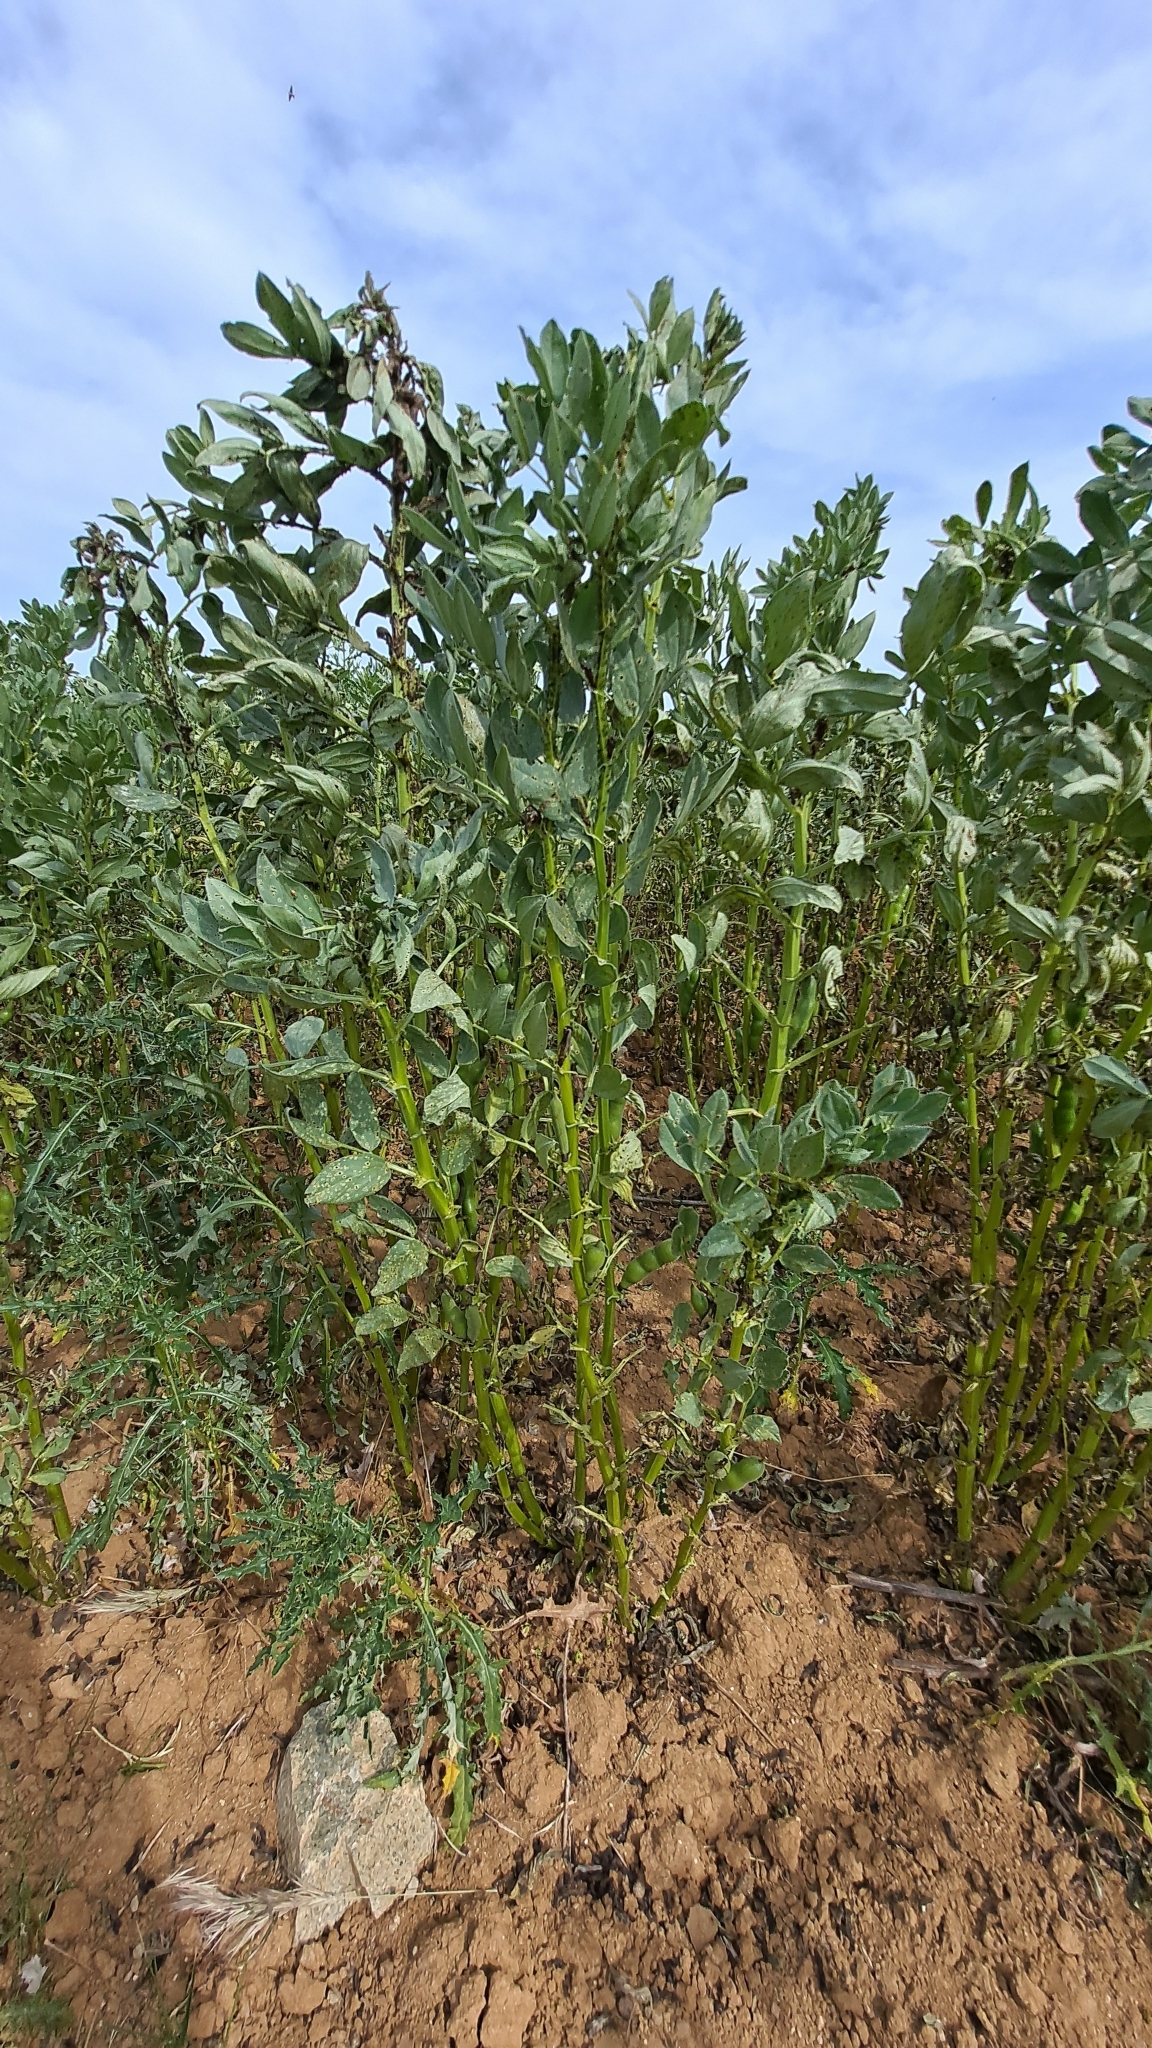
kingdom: Plantae
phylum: Tracheophyta
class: Magnoliopsida
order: Fabales
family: Fabaceae
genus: Vicia
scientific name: Vicia faba
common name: Broad bean
